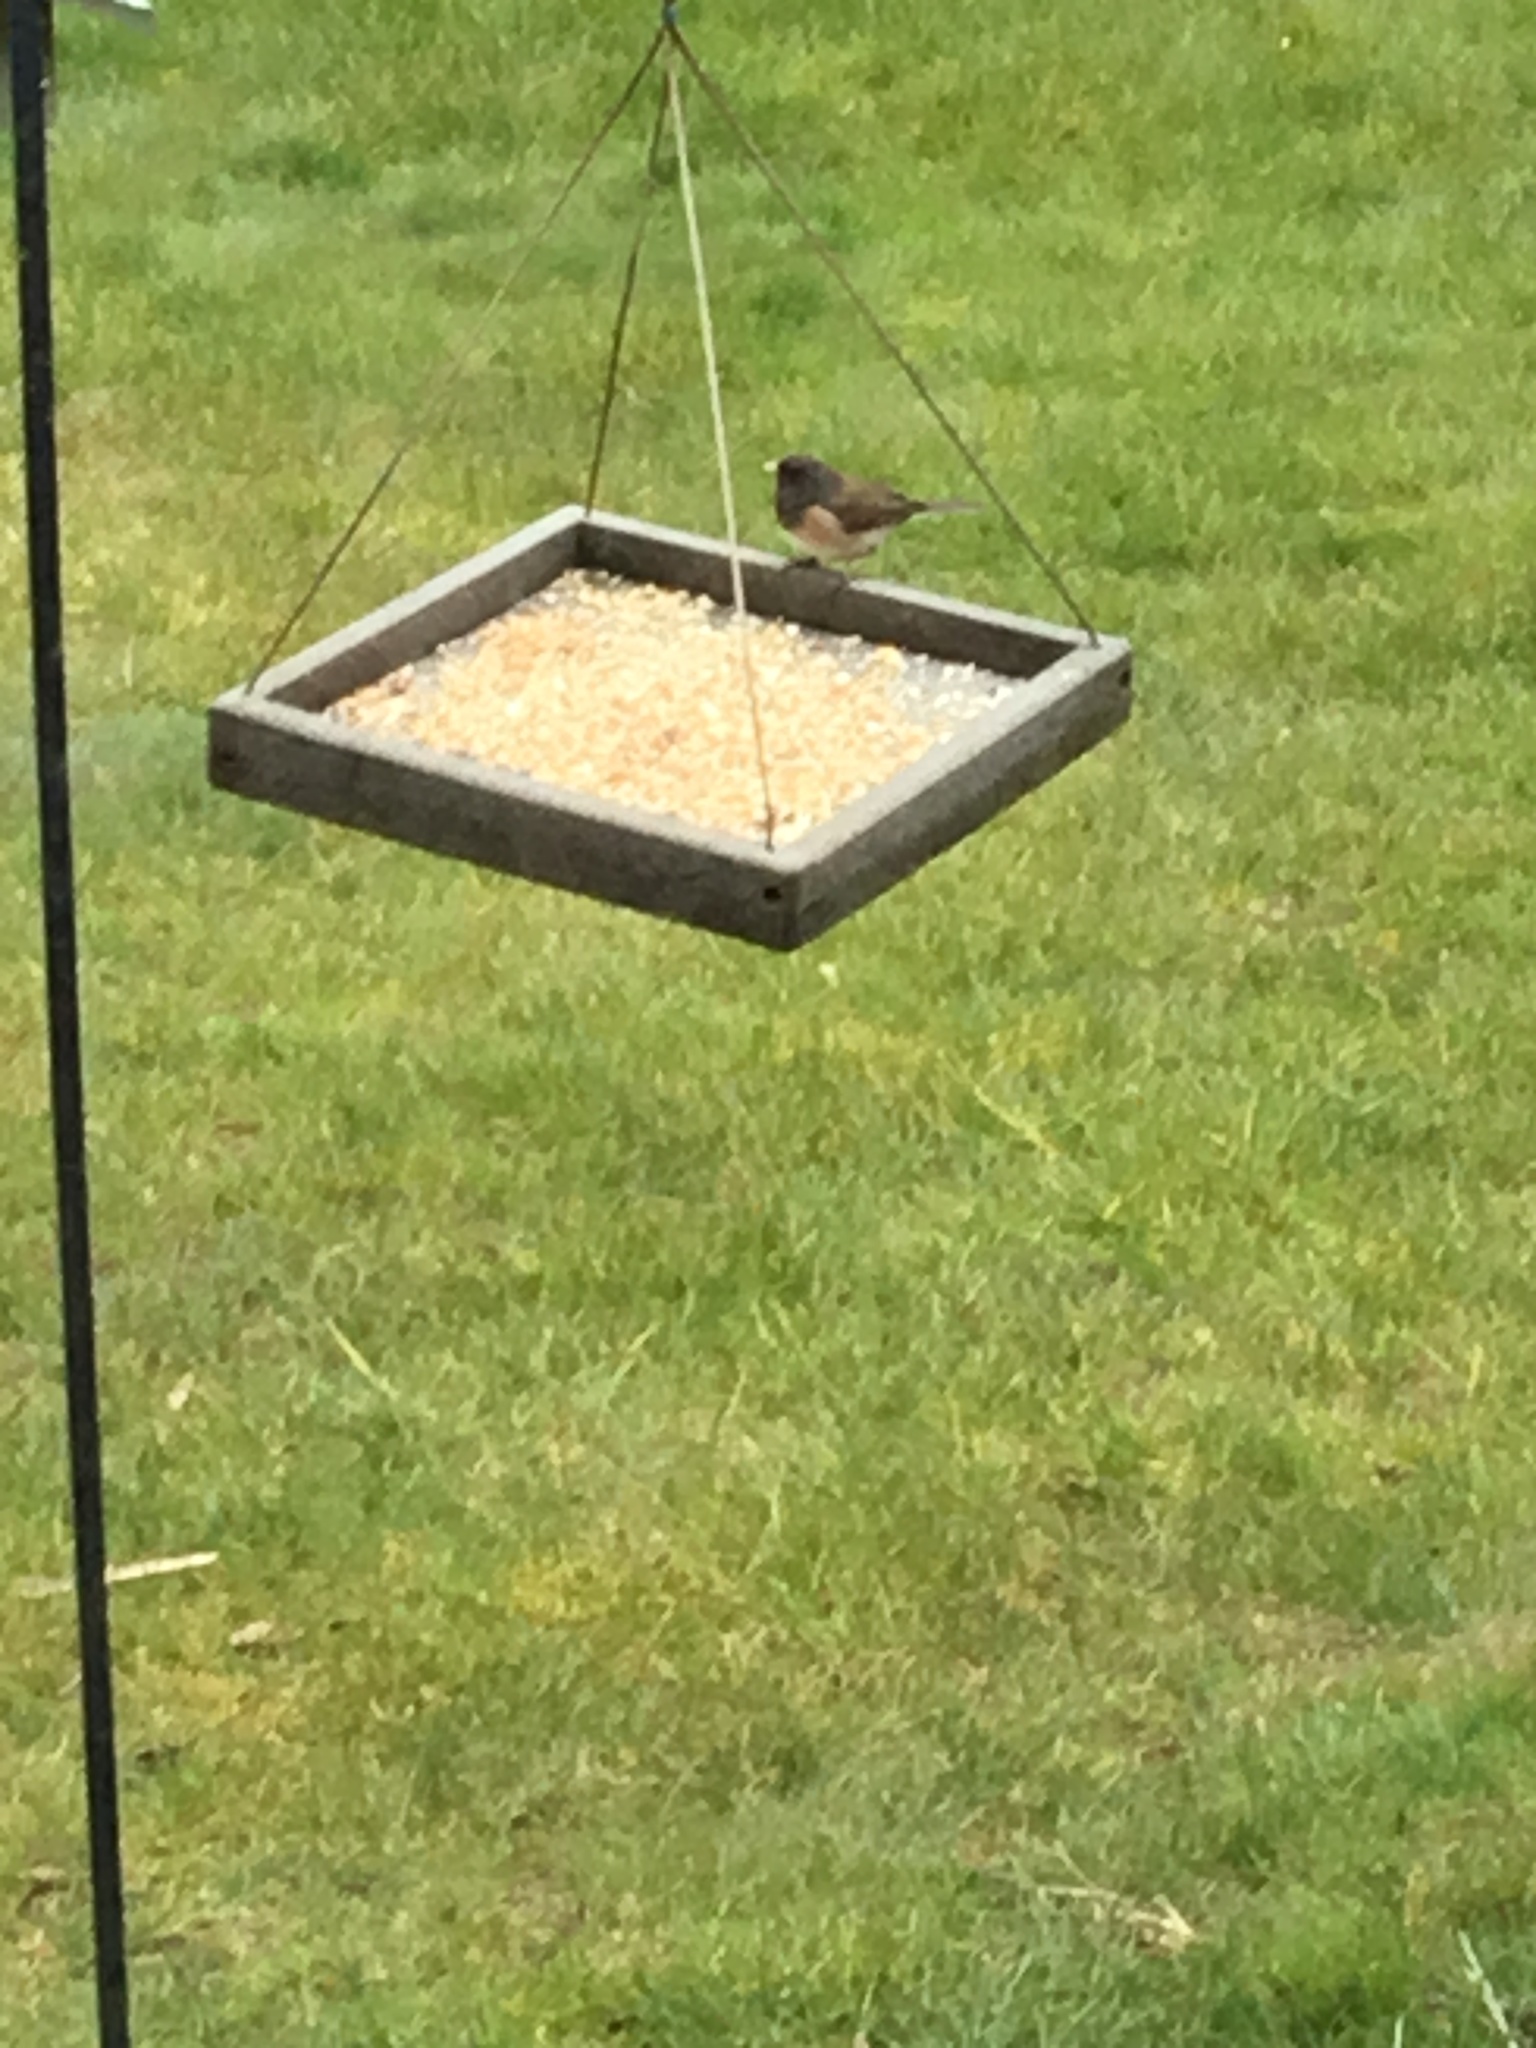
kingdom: Animalia
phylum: Chordata
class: Aves
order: Passeriformes
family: Passerellidae
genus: Junco
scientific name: Junco hyemalis
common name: Dark-eyed junco
